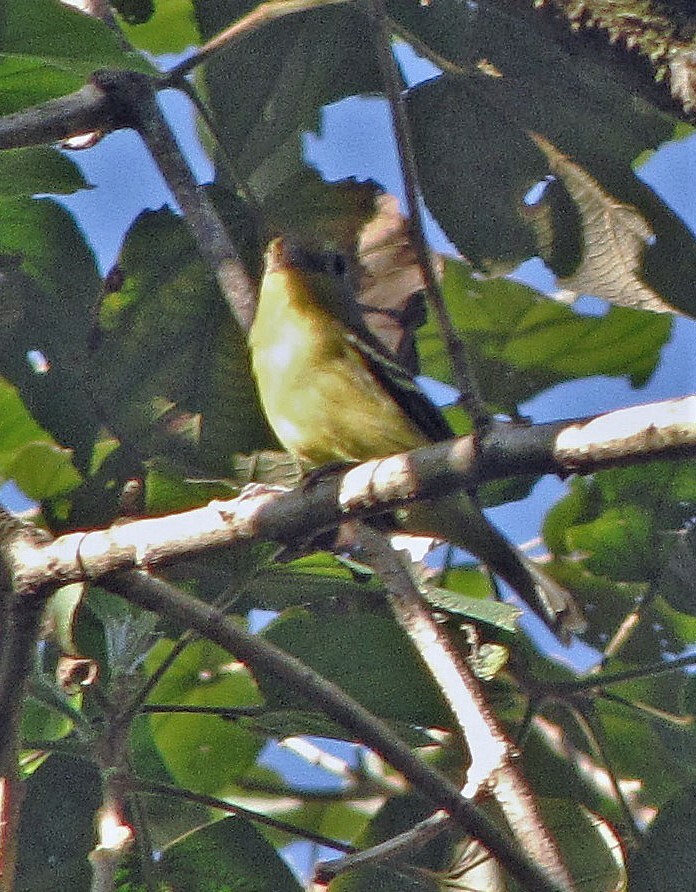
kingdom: Animalia
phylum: Chordata
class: Aves
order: Passeriformes
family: Cotingidae
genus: Piprites
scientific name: Piprites chloris
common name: Wing-barred piprites
